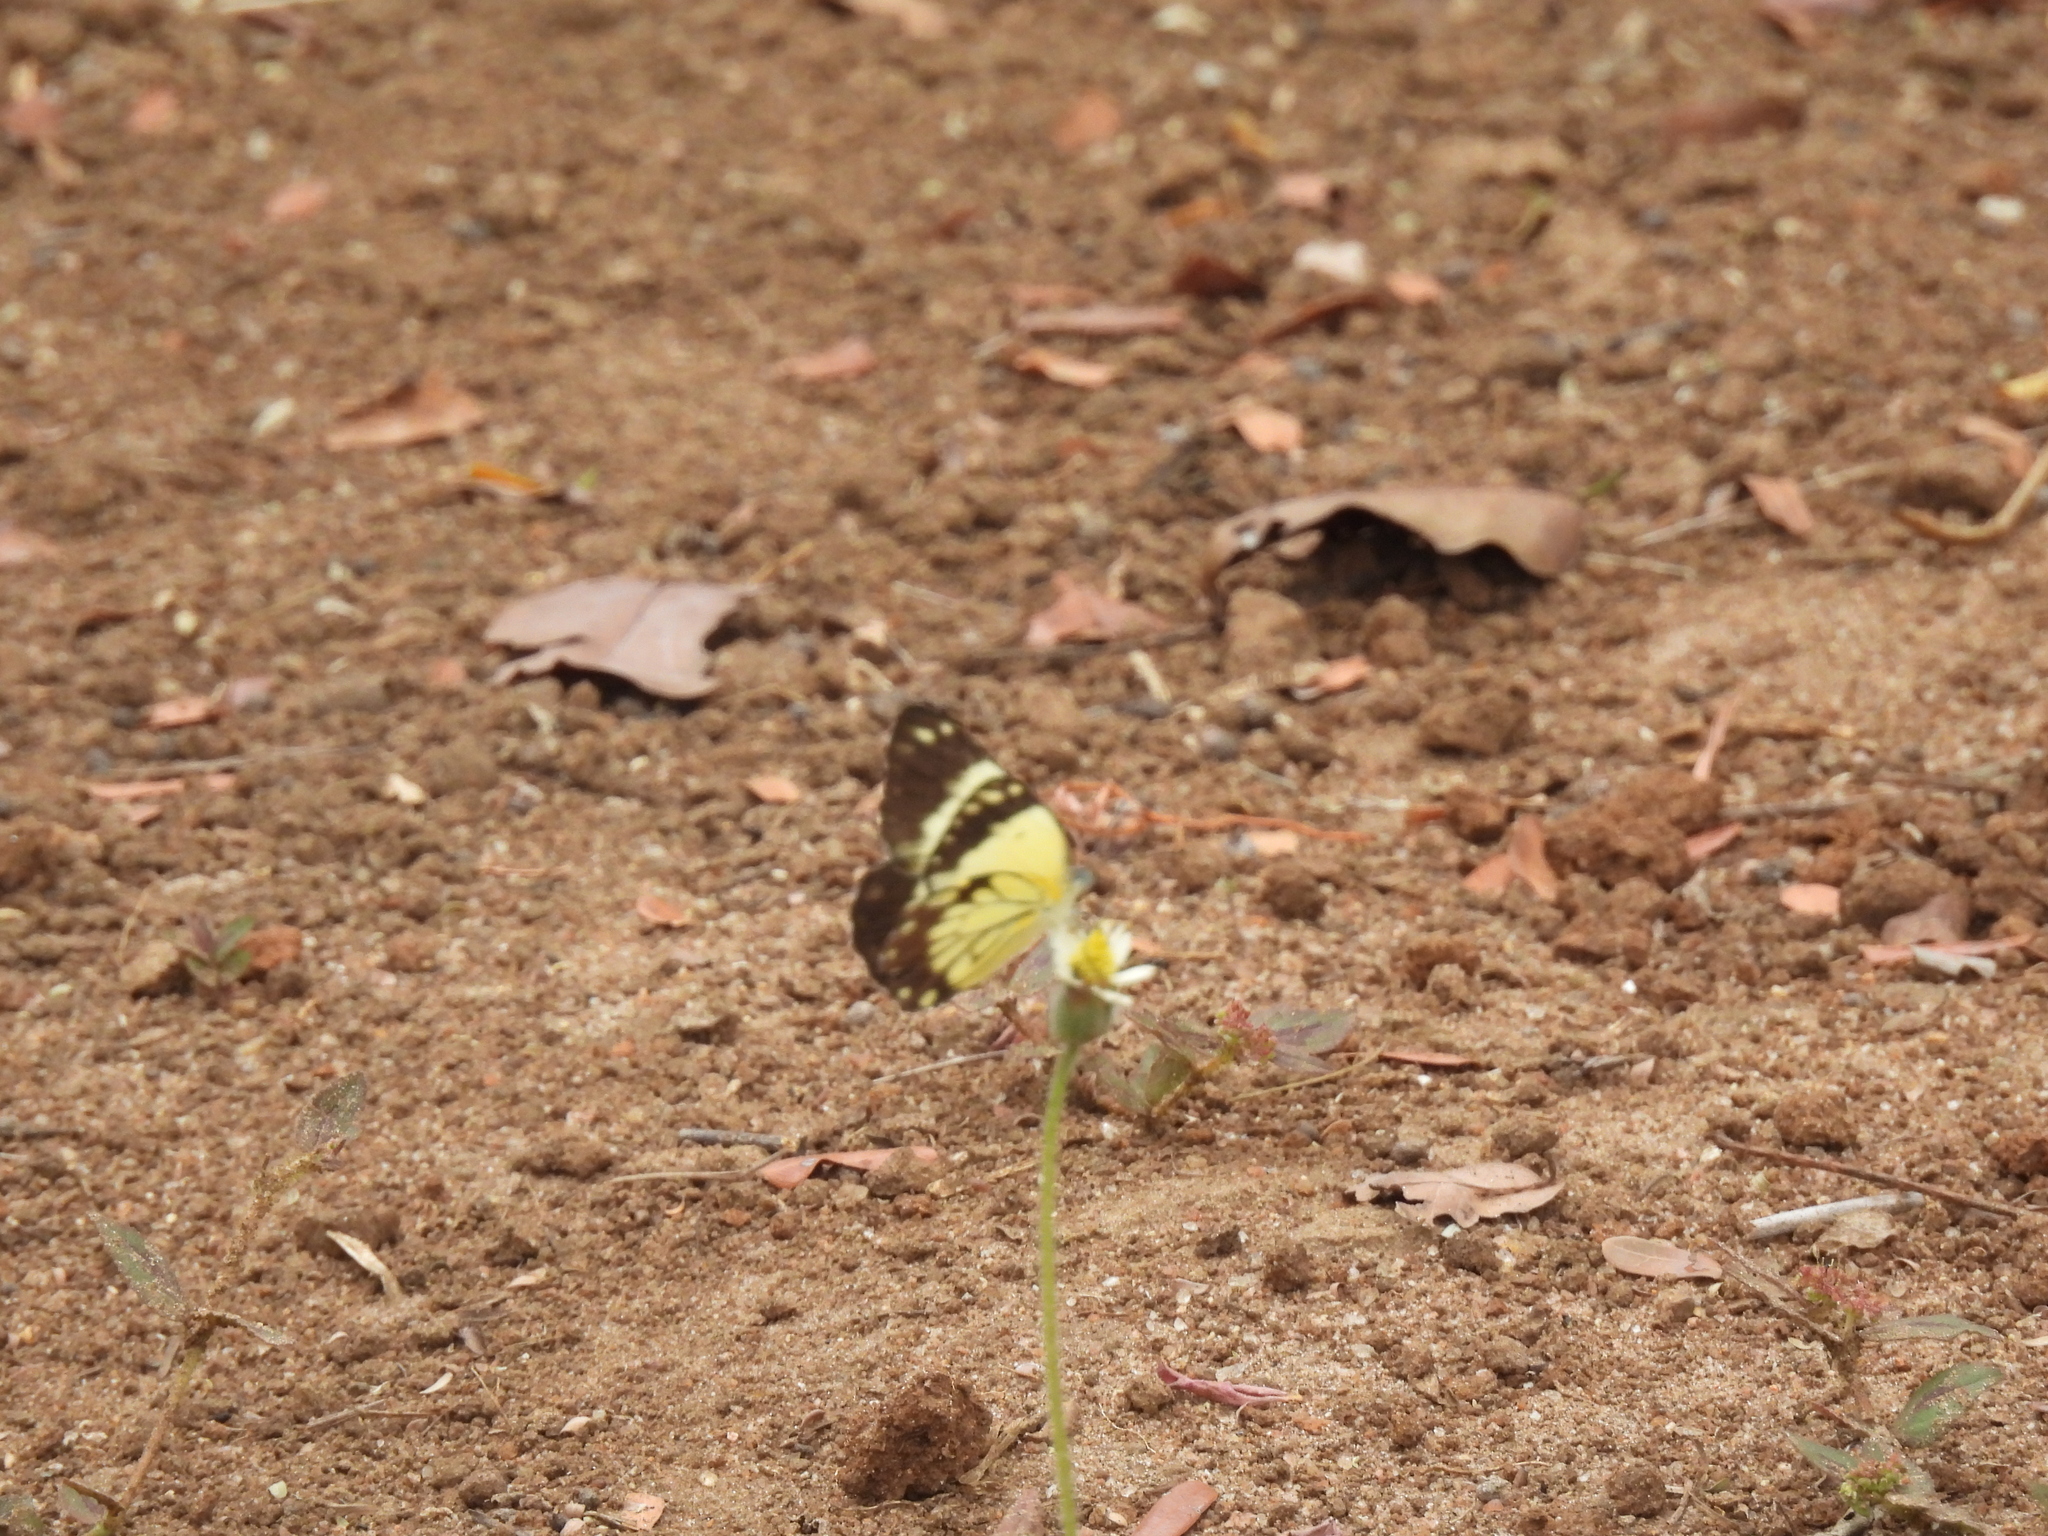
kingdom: Animalia
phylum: Arthropoda
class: Insecta
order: Lepidoptera
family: Pieridae
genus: Belenois
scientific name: Belenois creona
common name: African caper white
